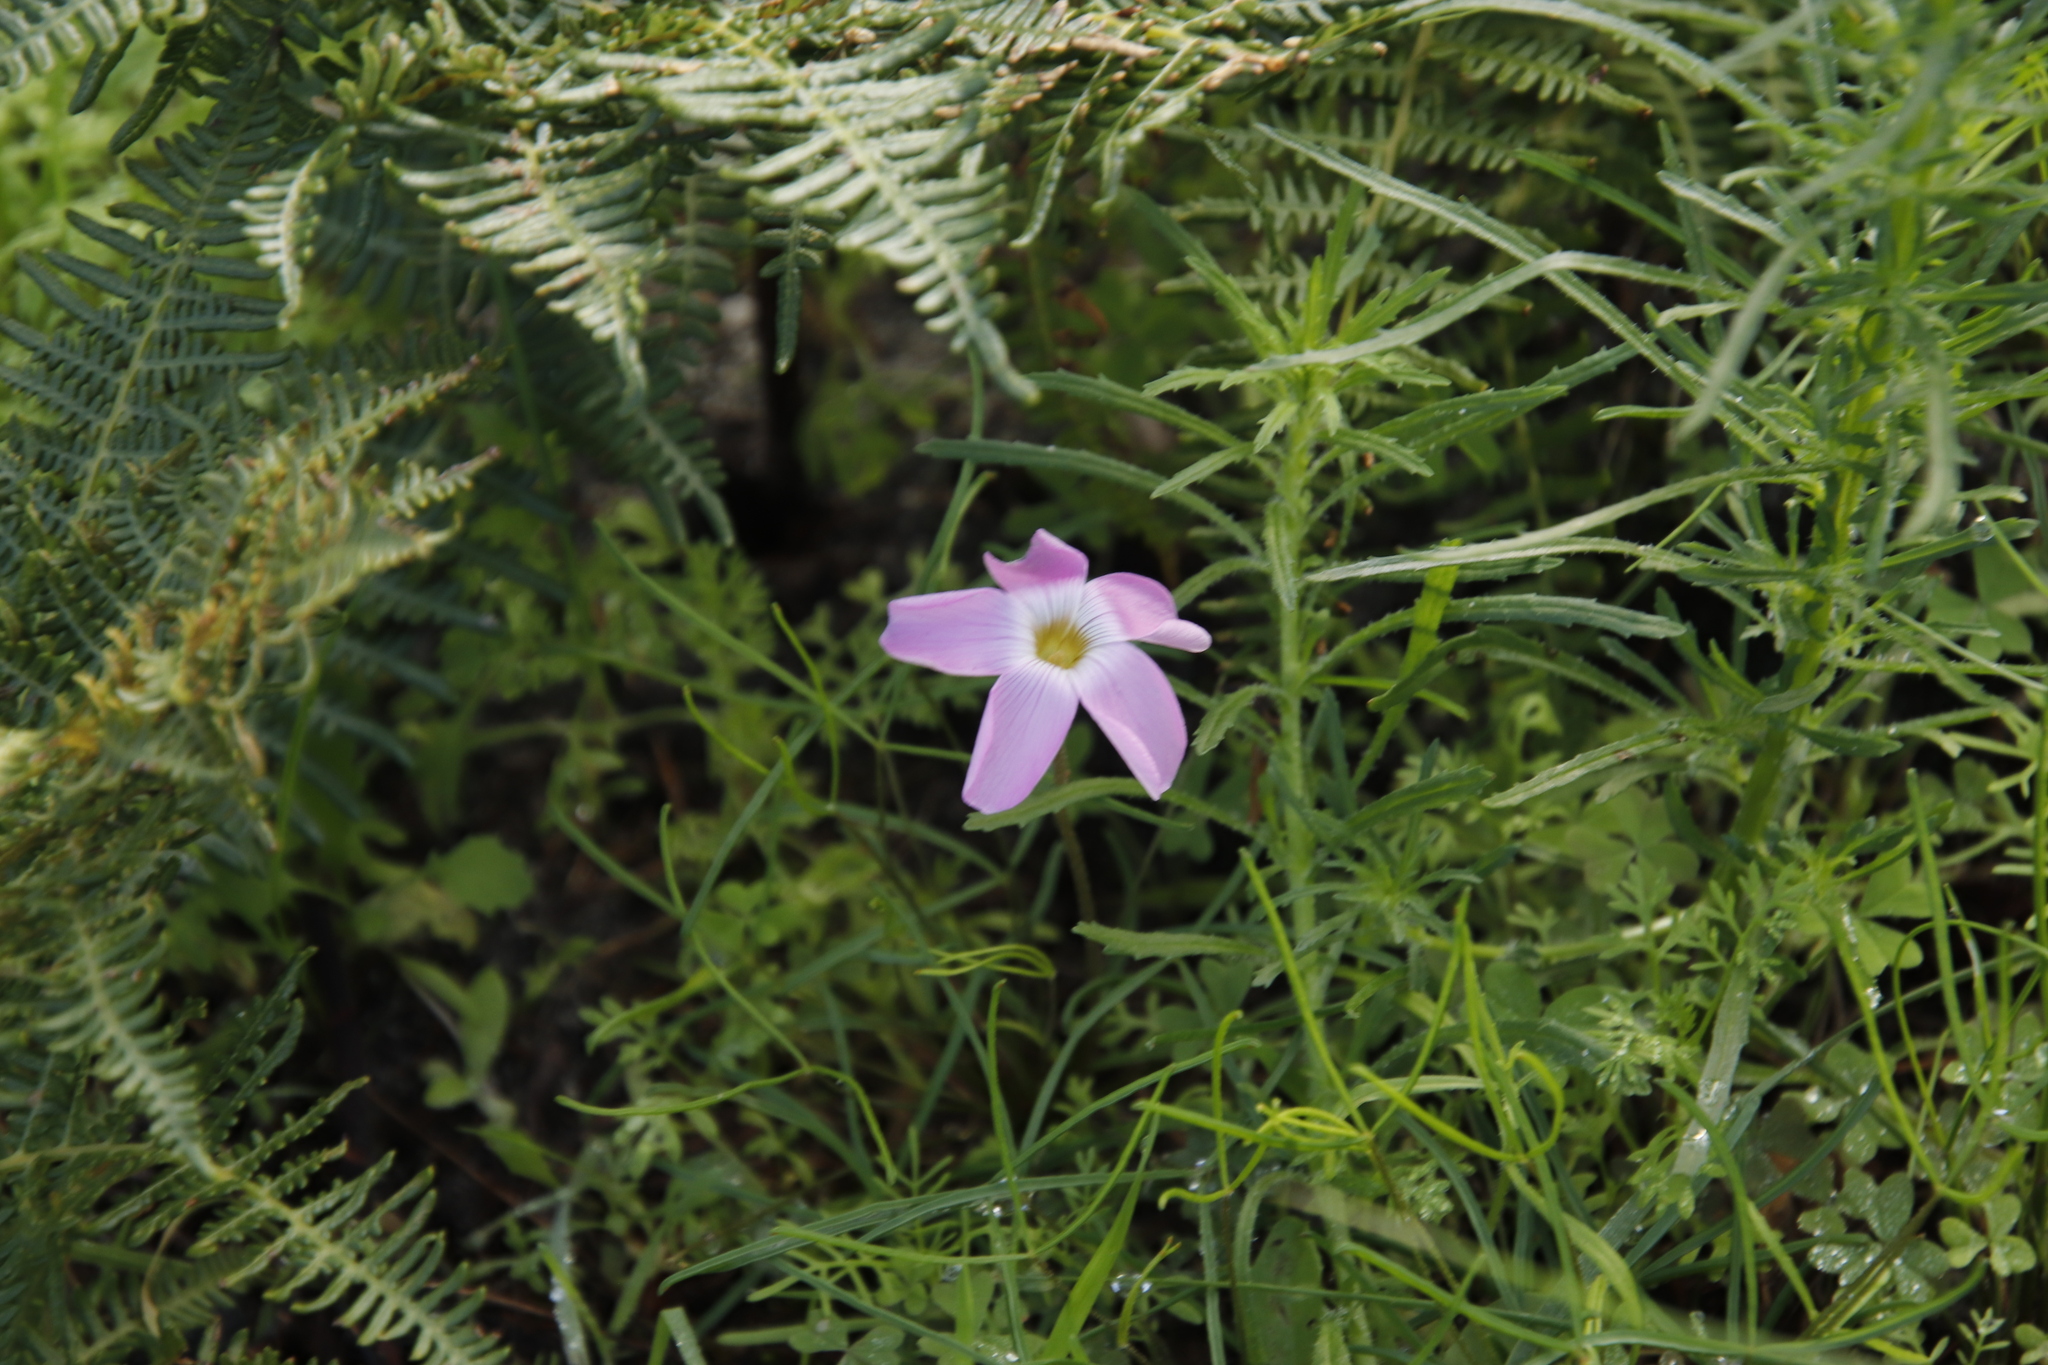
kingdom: Plantae
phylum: Tracheophyta
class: Magnoliopsida
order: Oxalidales
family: Oxalidaceae
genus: Oxalis
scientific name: Oxalis polyphylla
